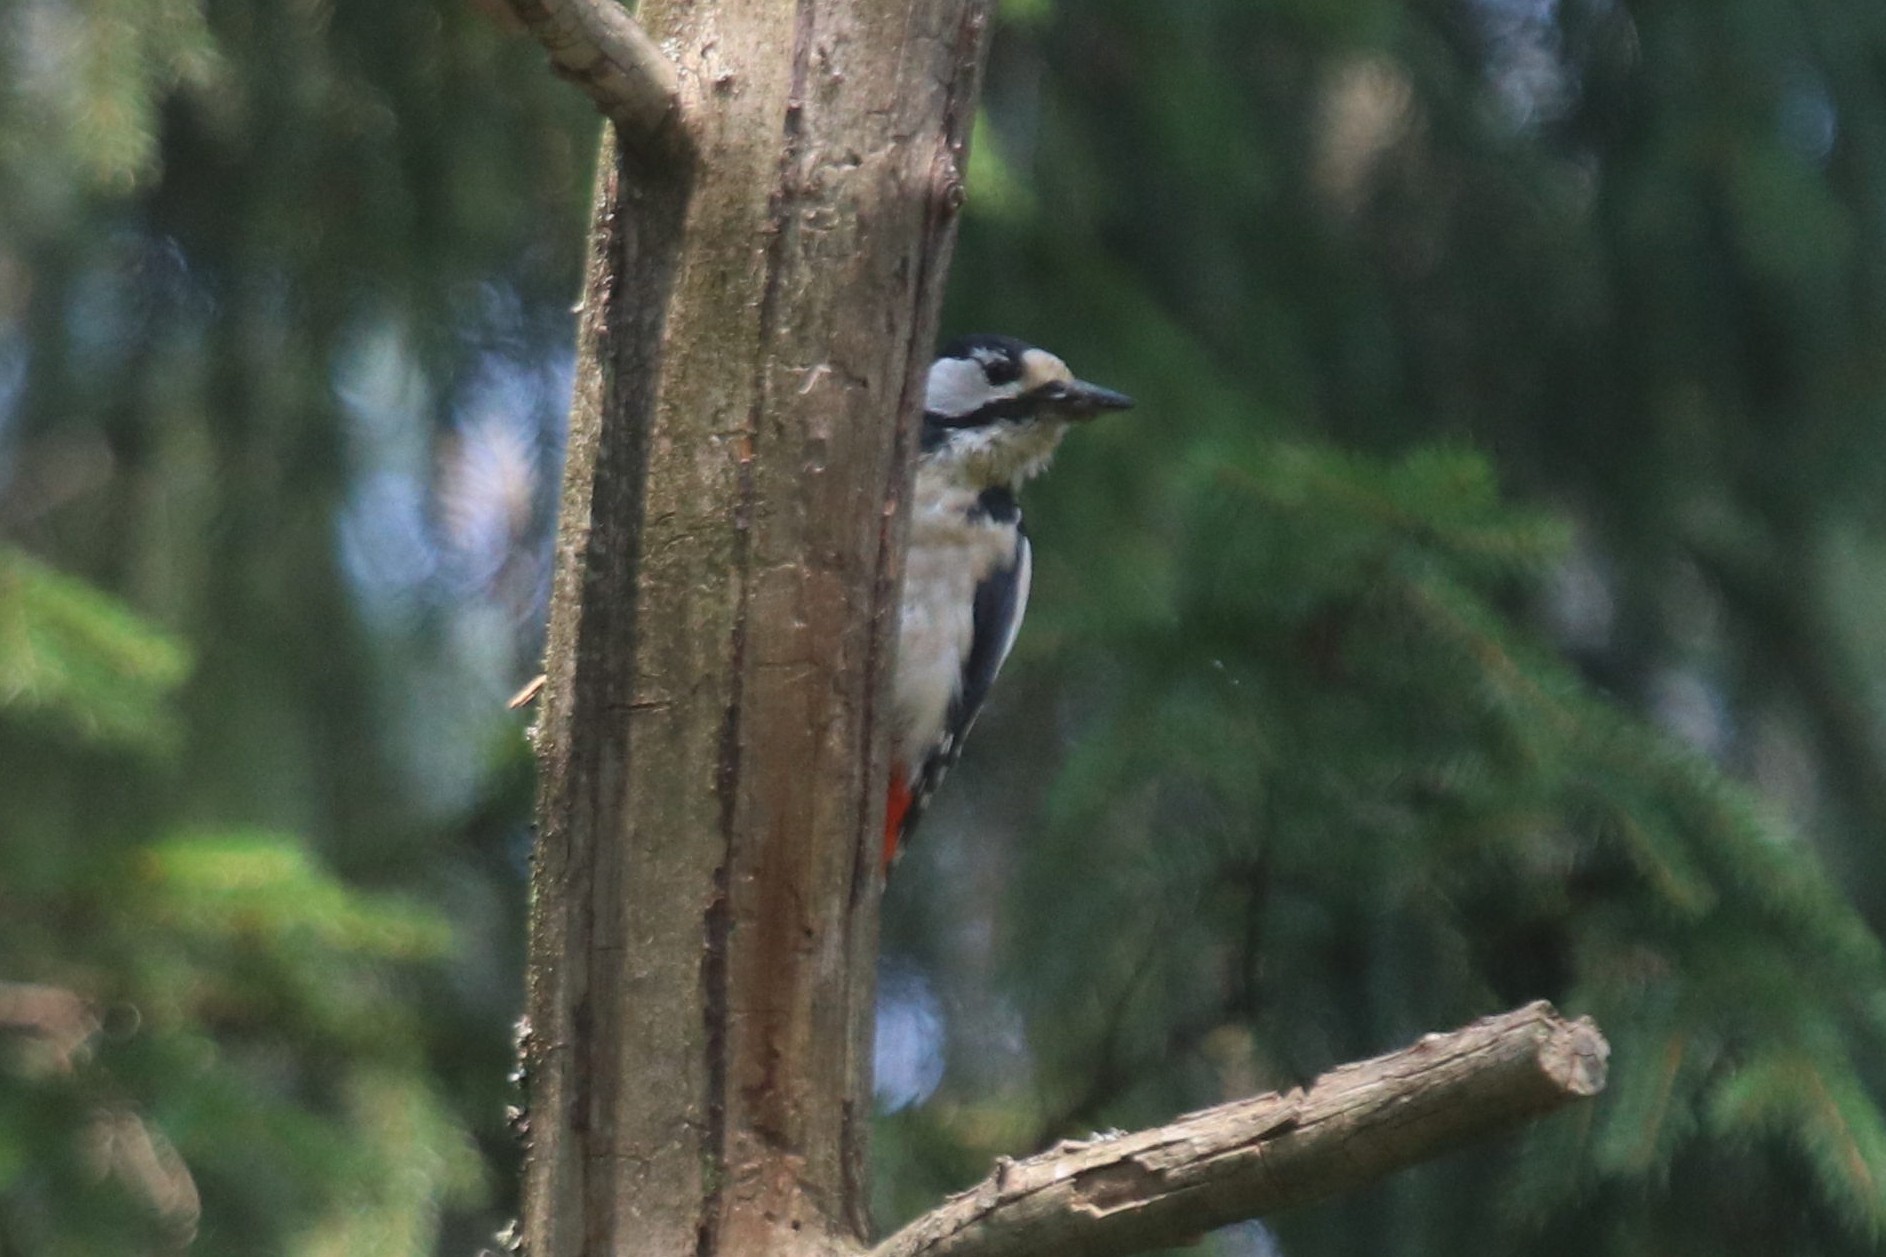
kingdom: Animalia
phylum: Chordata
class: Aves
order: Piciformes
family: Picidae
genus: Dendrocopos
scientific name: Dendrocopos major
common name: Great spotted woodpecker
